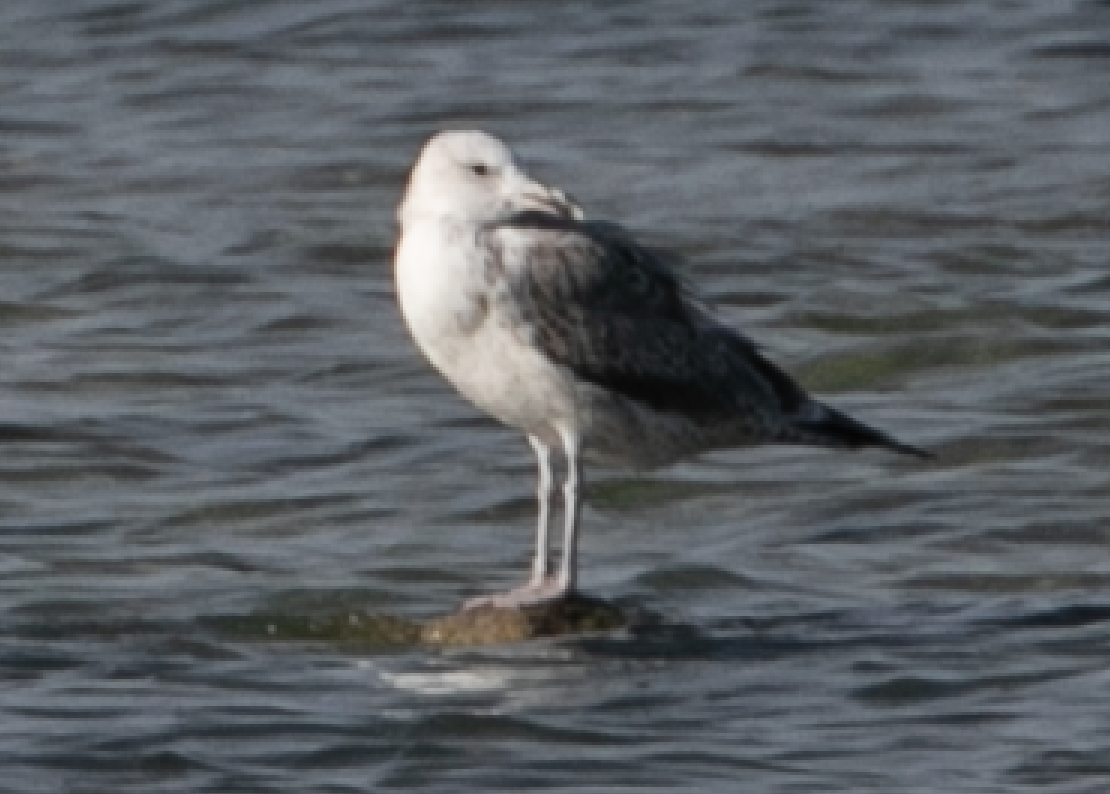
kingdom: Animalia
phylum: Chordata
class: Aves
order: Charadriiformes
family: Laridae
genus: Larus
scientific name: Larus cachinnans
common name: Caspian gull
